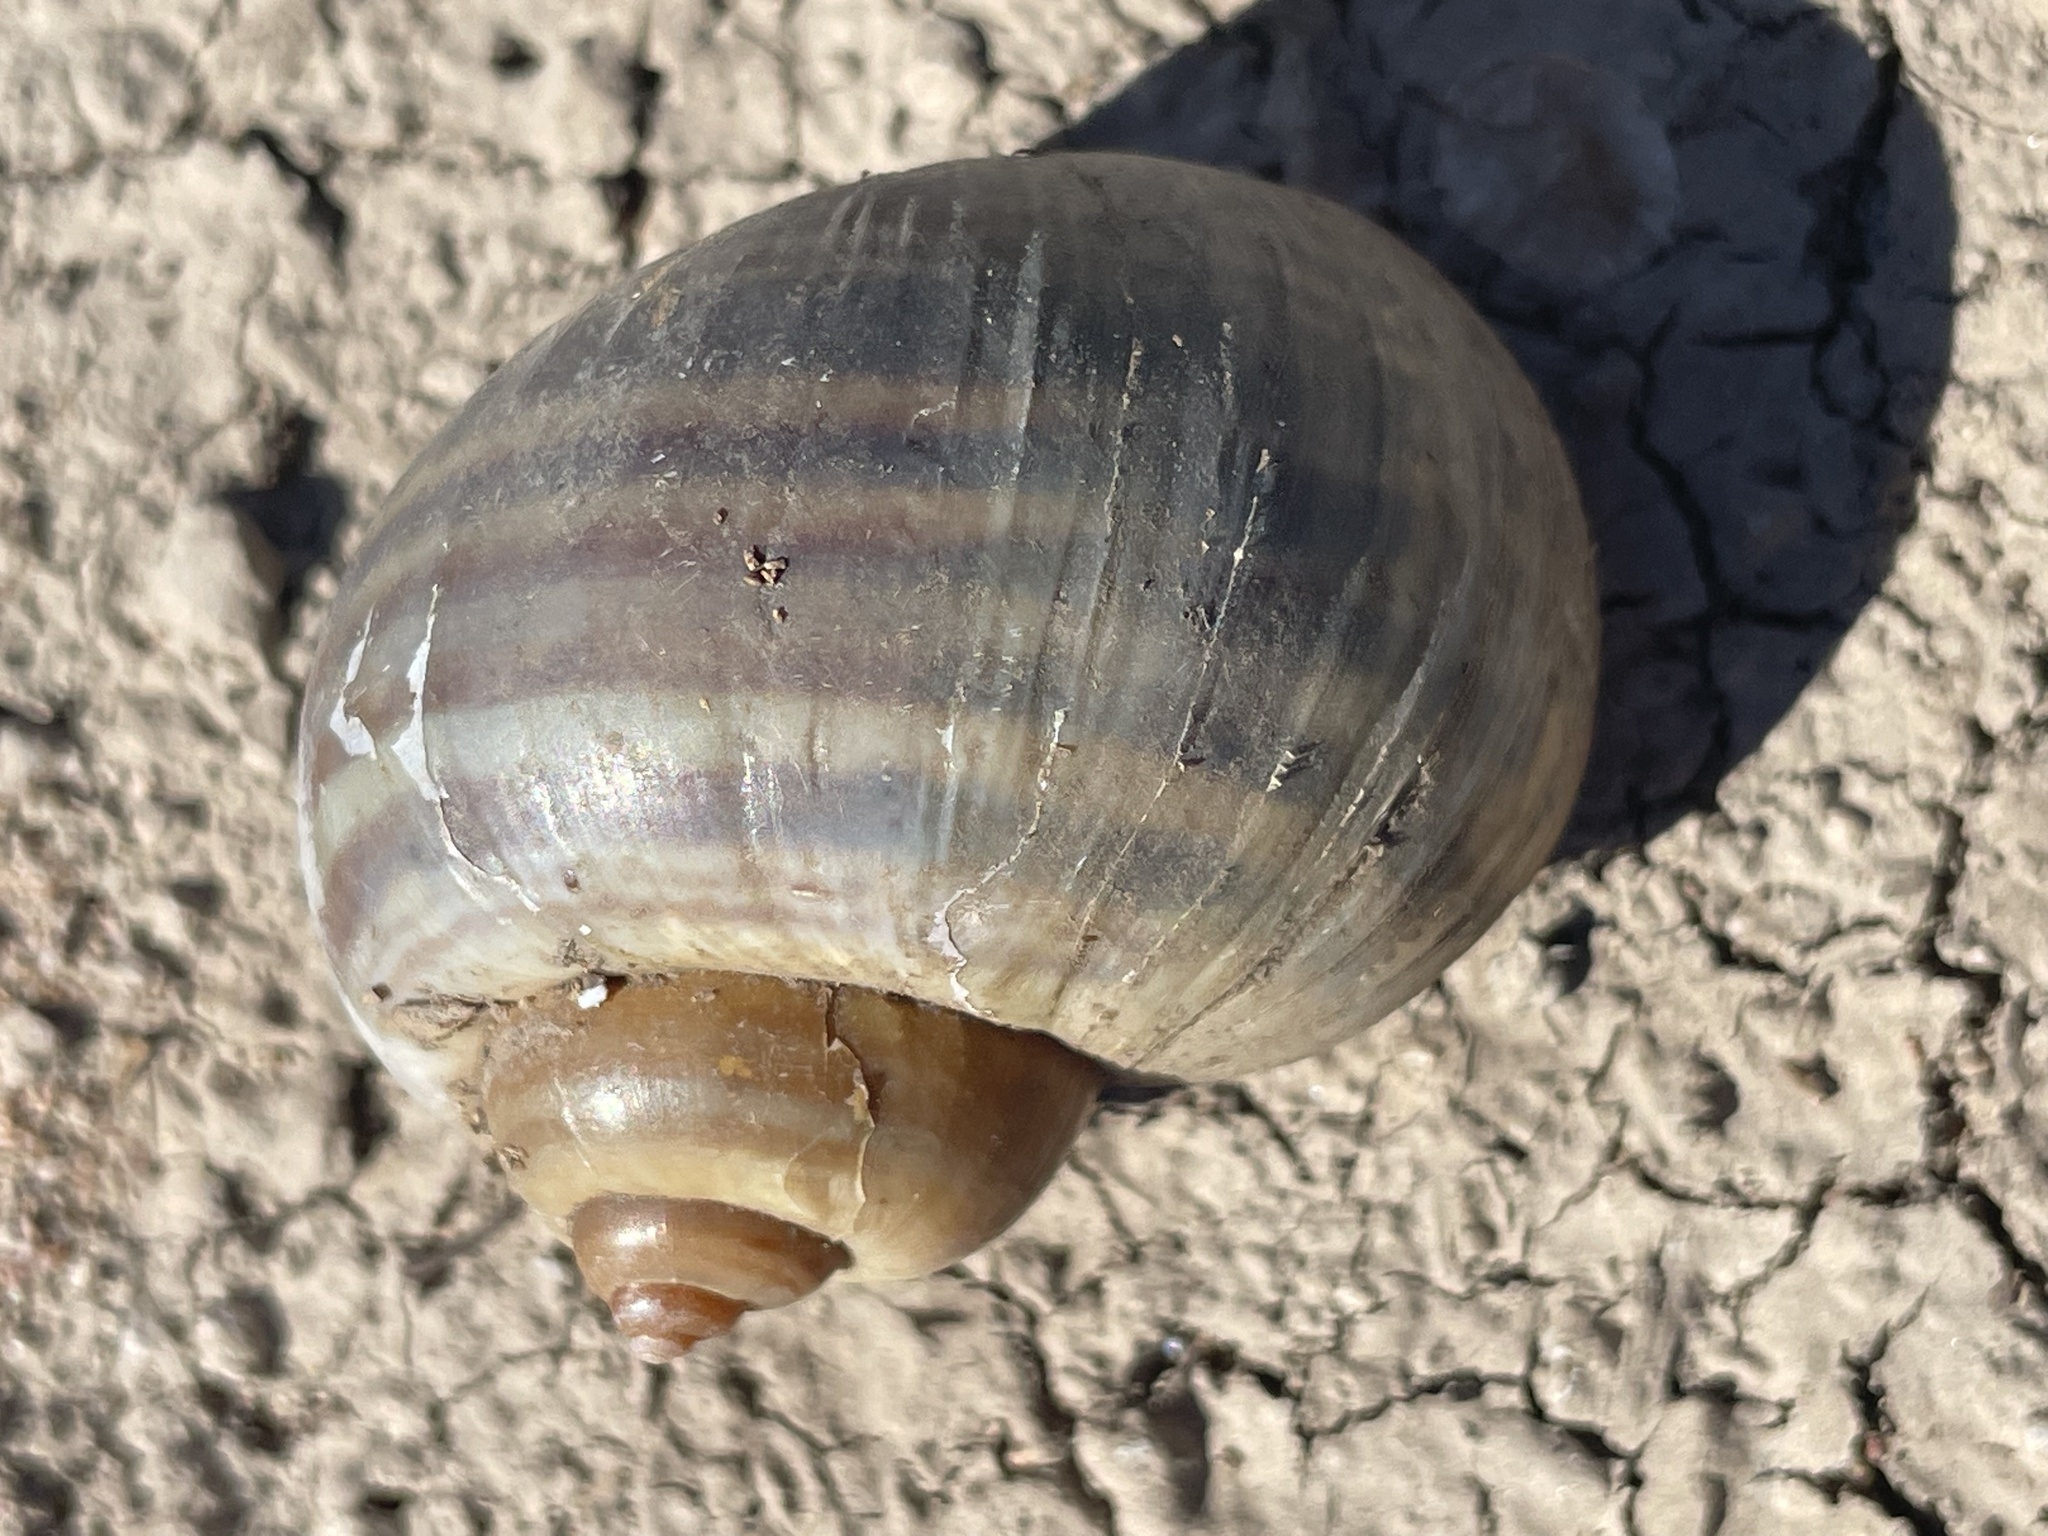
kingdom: Animalia
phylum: Mollusca
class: Gastropoda
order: Architaenioglossa
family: Ampullariidae
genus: Pomacea
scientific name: Pomacea canaliculata
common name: Channeled applesnail
